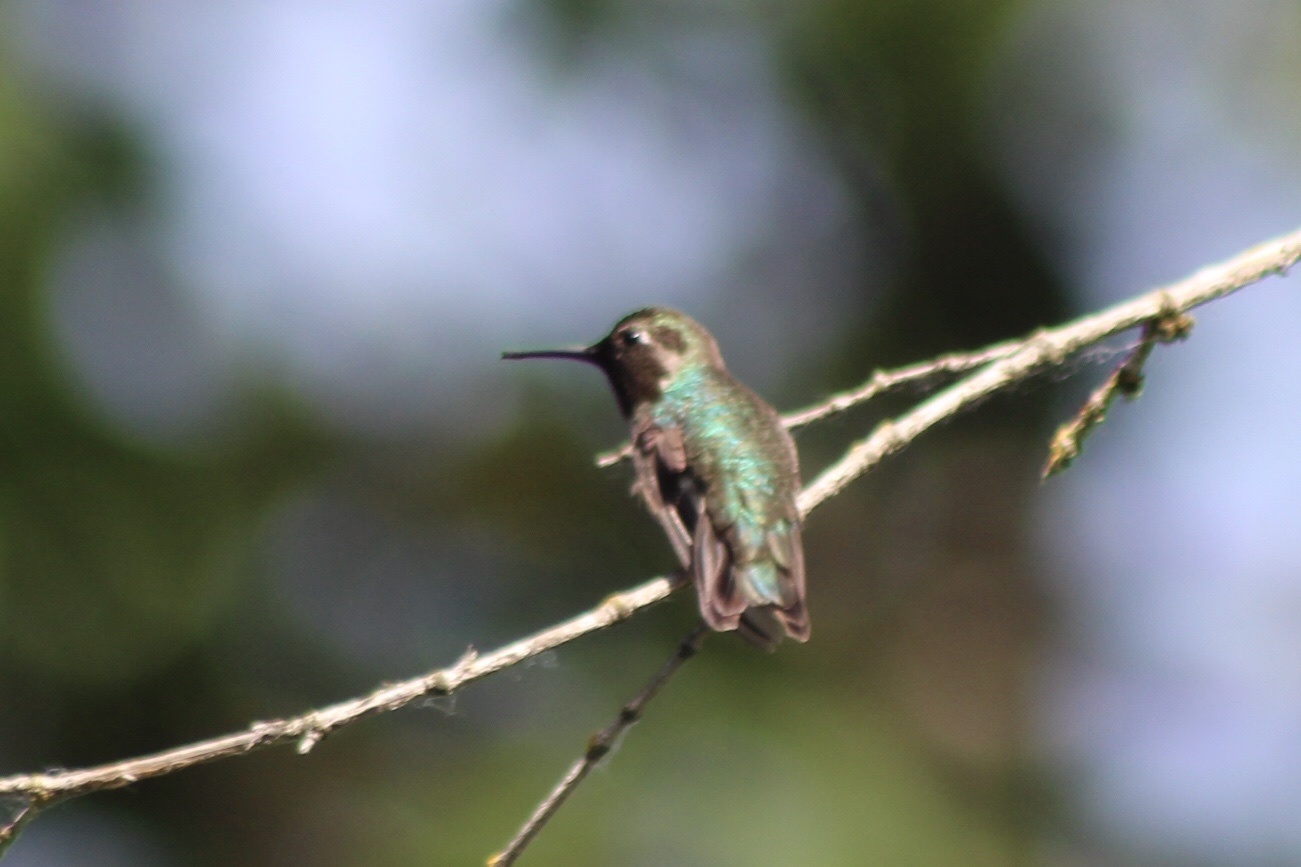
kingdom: Animalia
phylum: Chordata
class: Aves
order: Apodiformes
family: Trochilidae
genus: Calypte
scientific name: Calypte anna
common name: Anna's hummingbird
